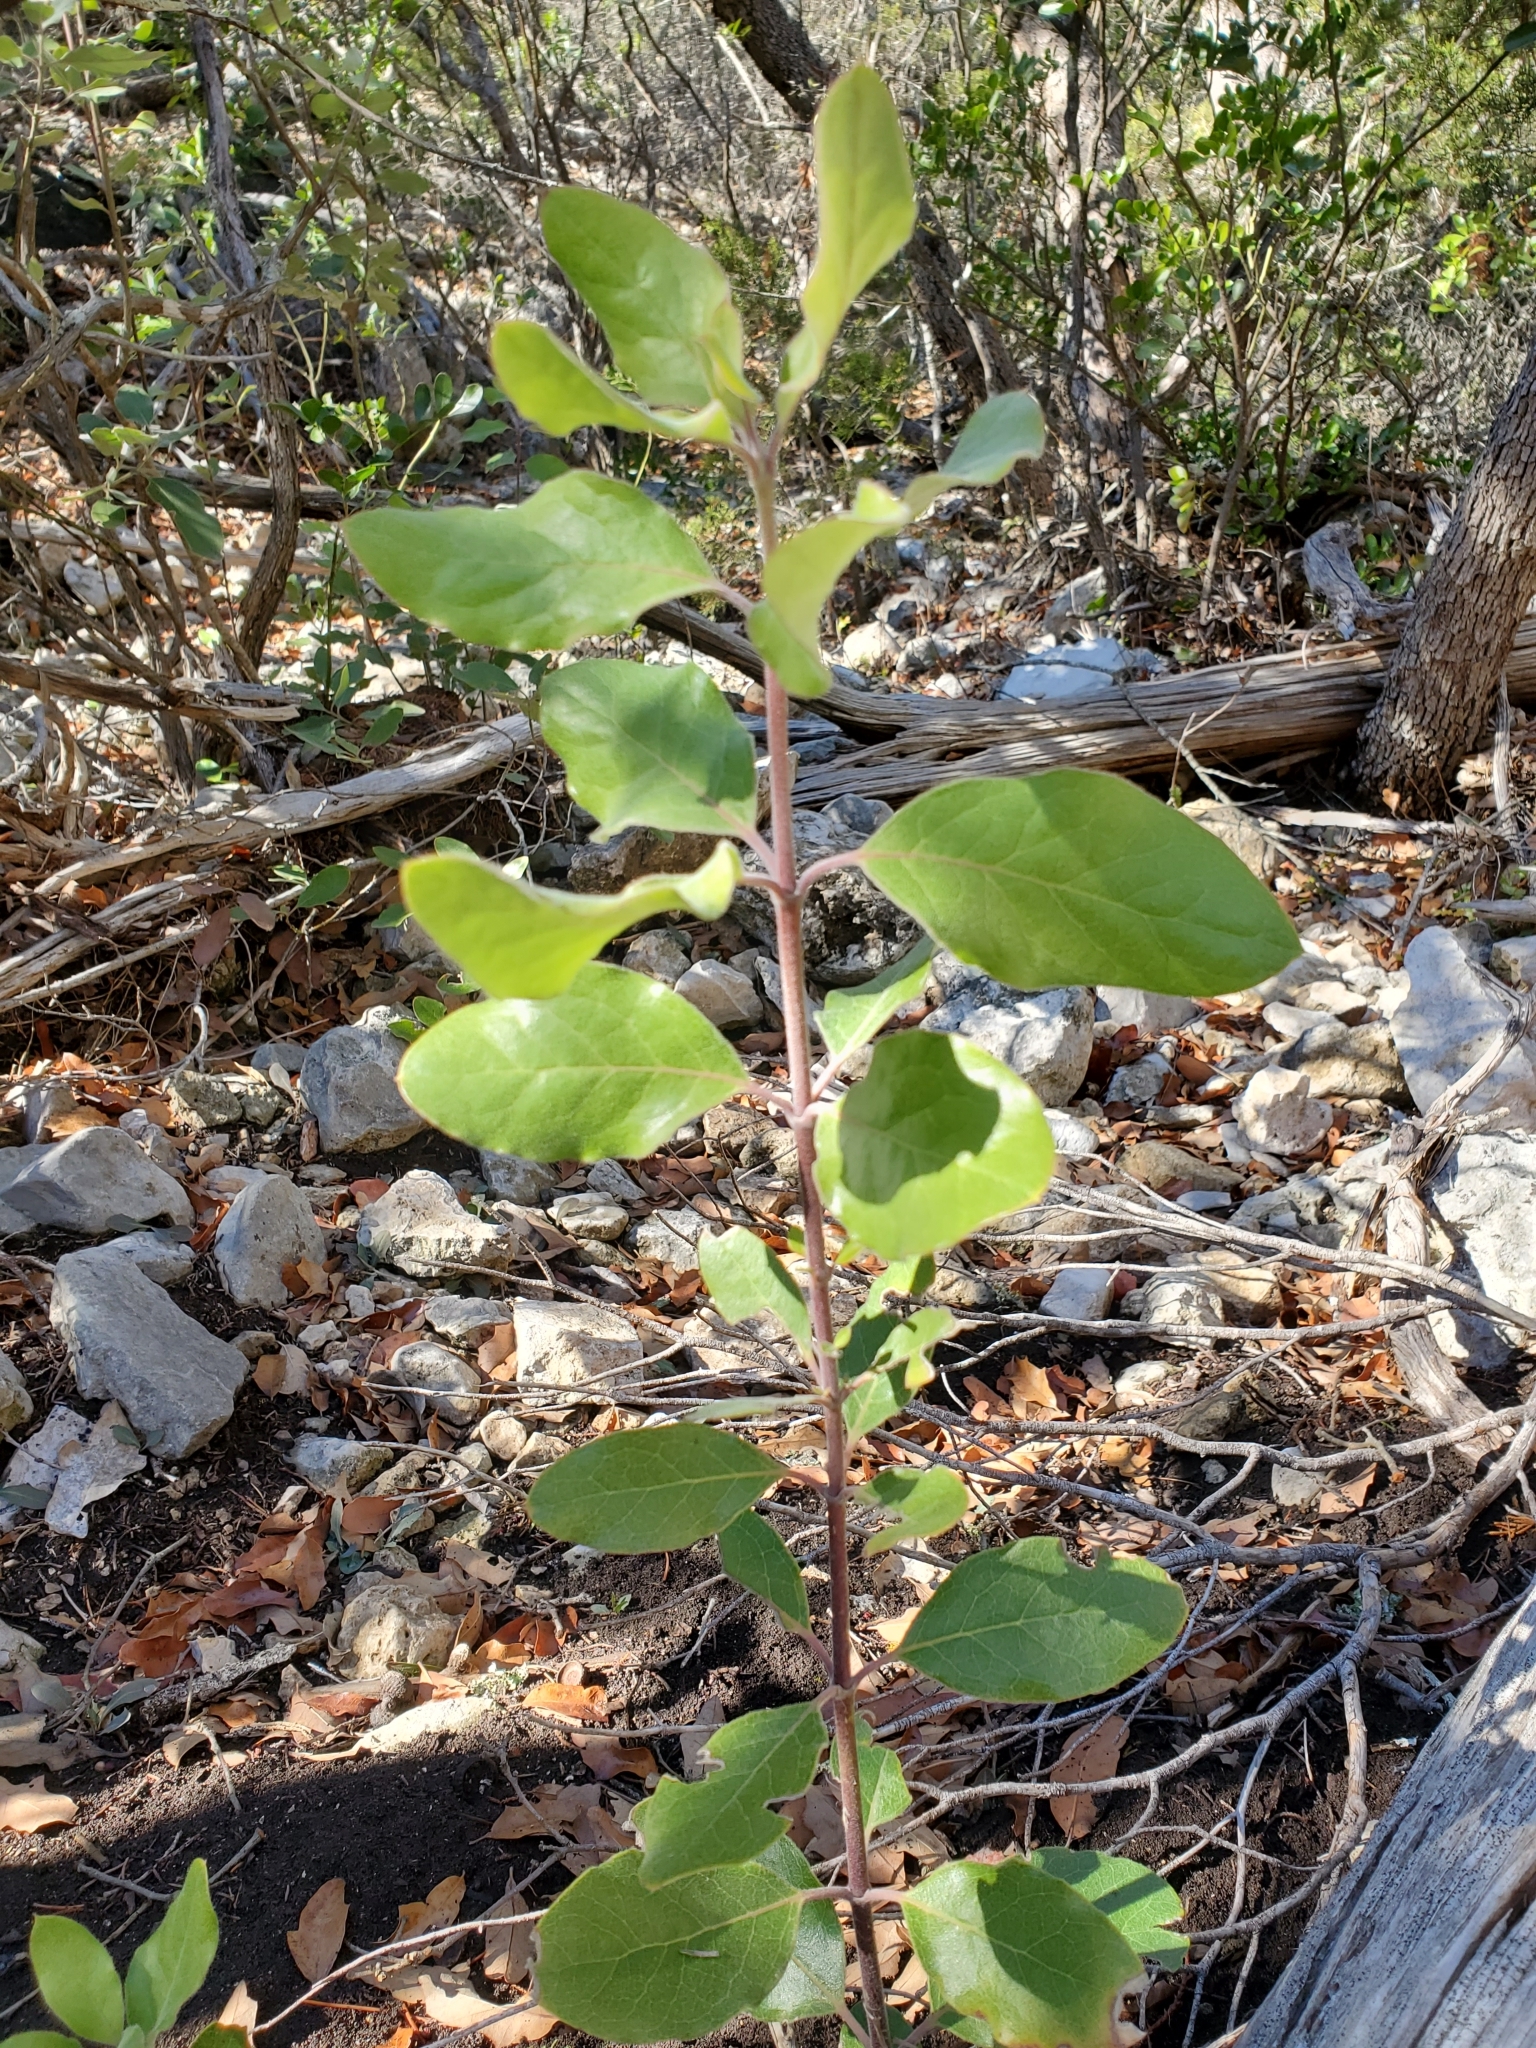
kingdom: Plantae
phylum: Tracheophyta
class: Magnoliopsida
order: Garryales
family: Garryaceae
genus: Garrya
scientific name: Garrya lindheimeri
